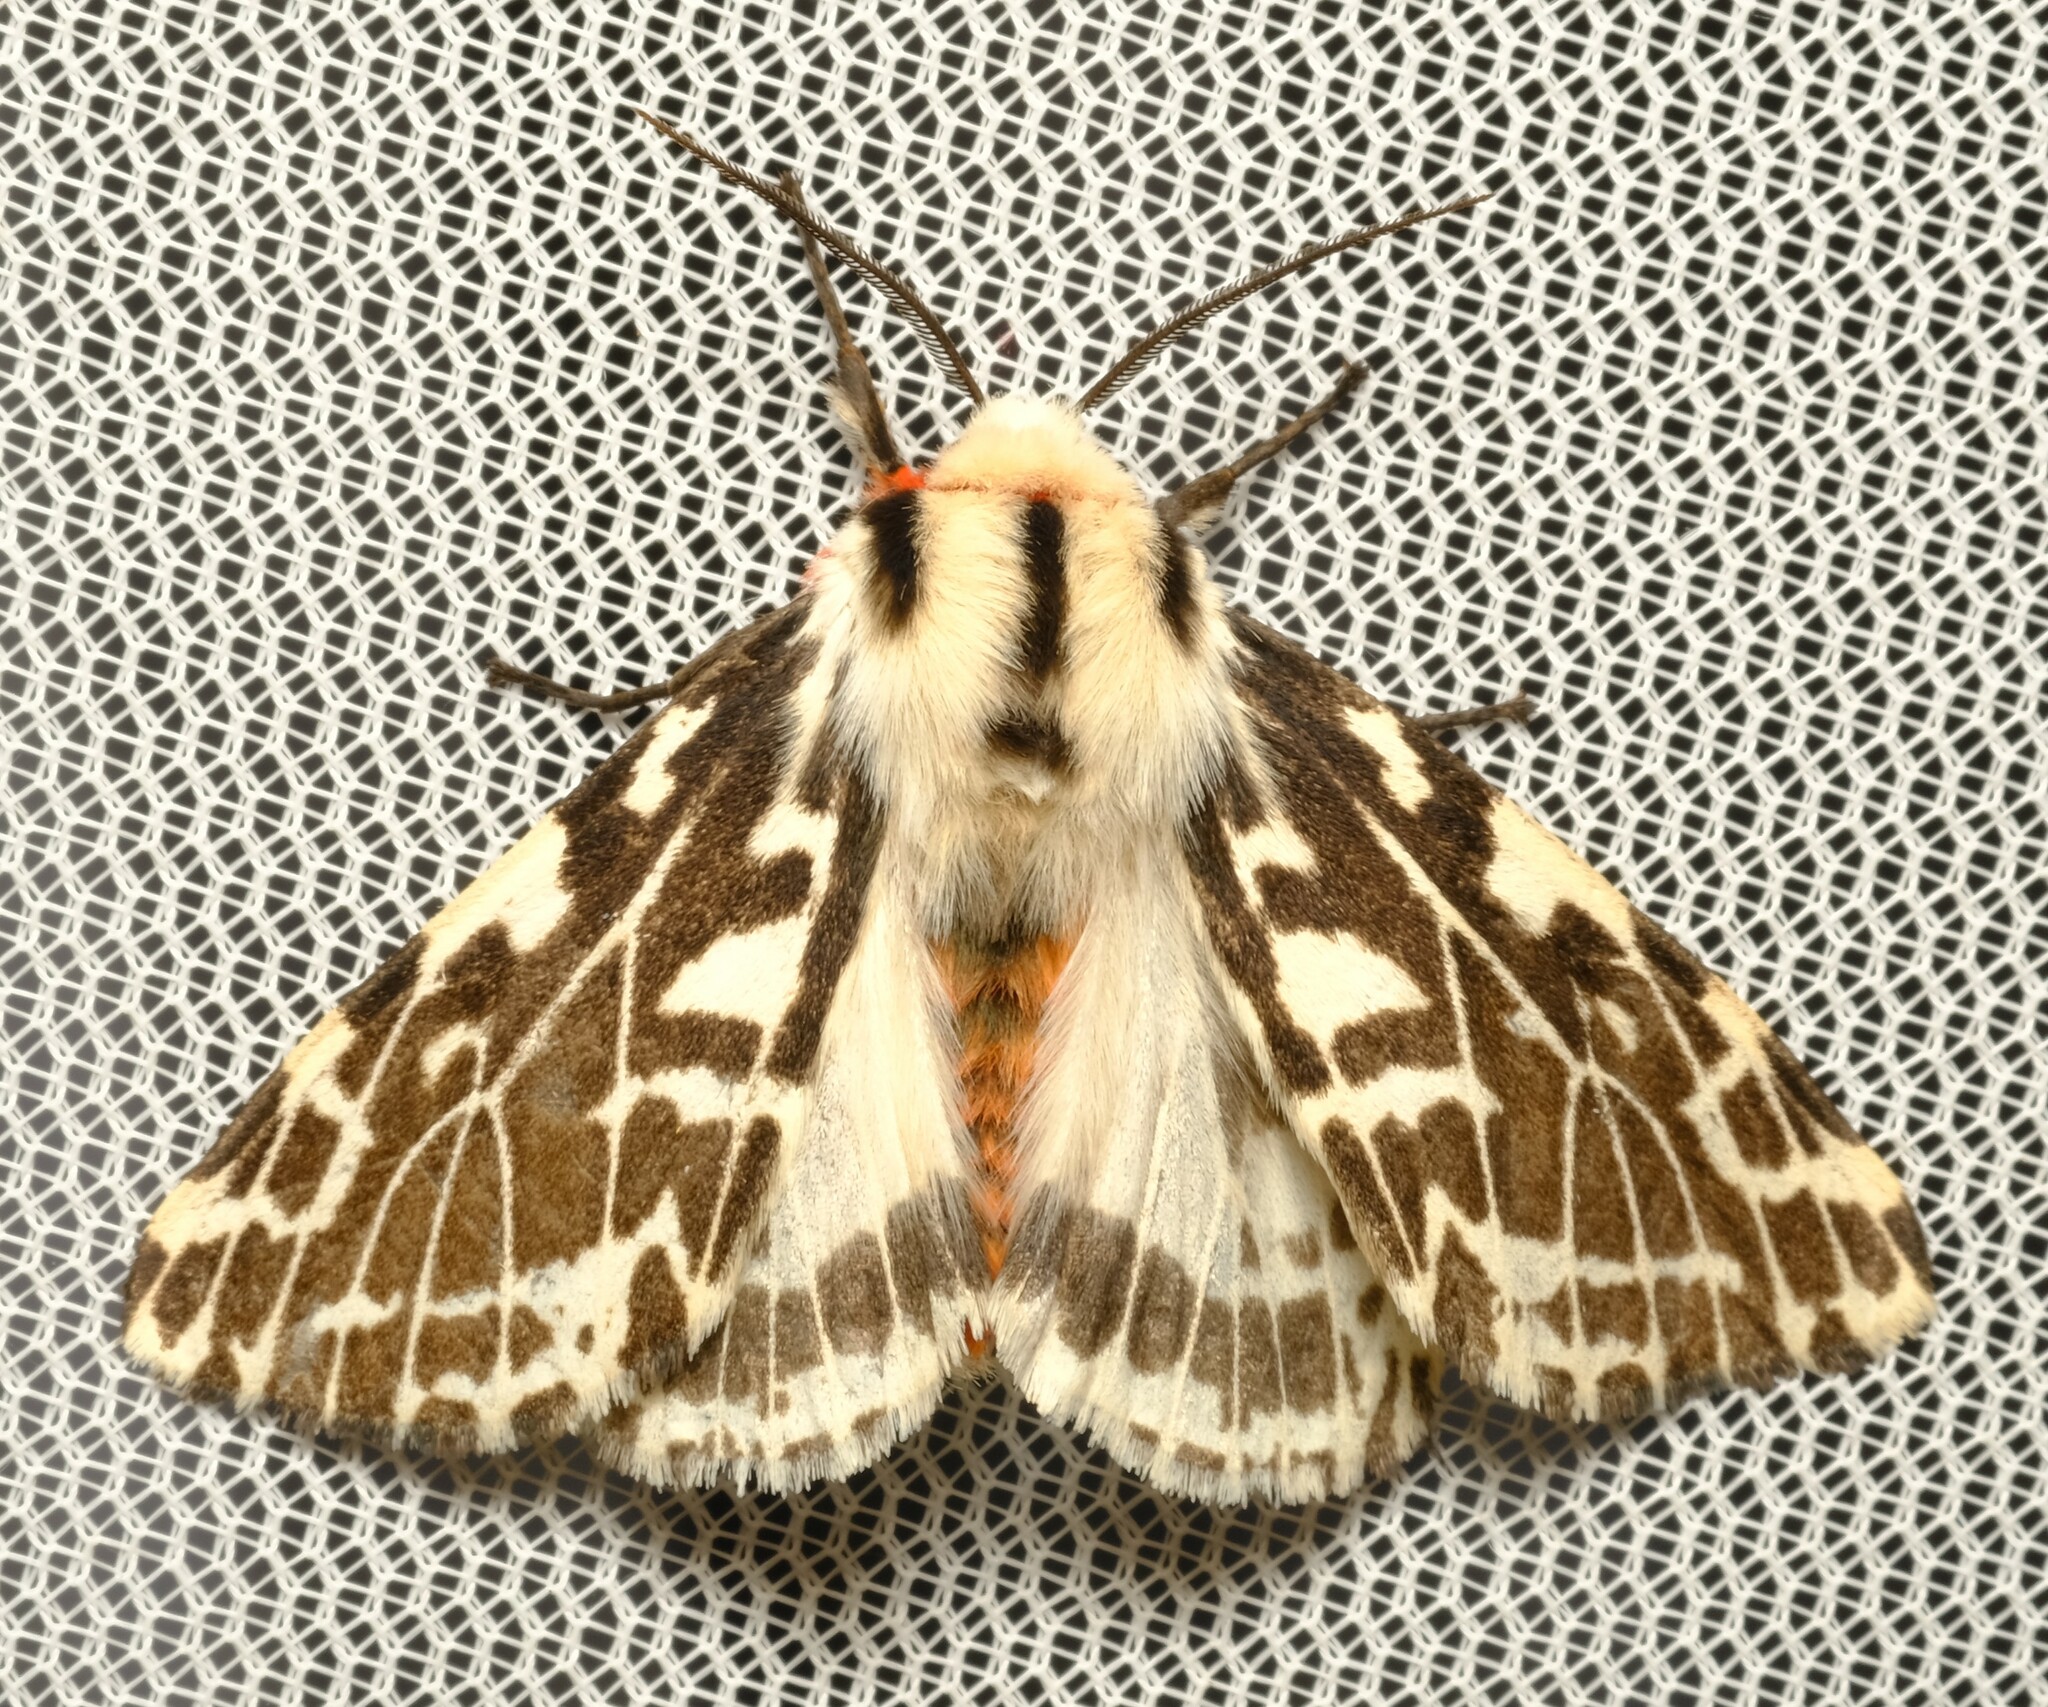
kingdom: Animalia
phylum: Arthropoda
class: Insecta
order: Lepidoptera
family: Erebidae
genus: Ardices
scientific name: Ardices glatignyi
